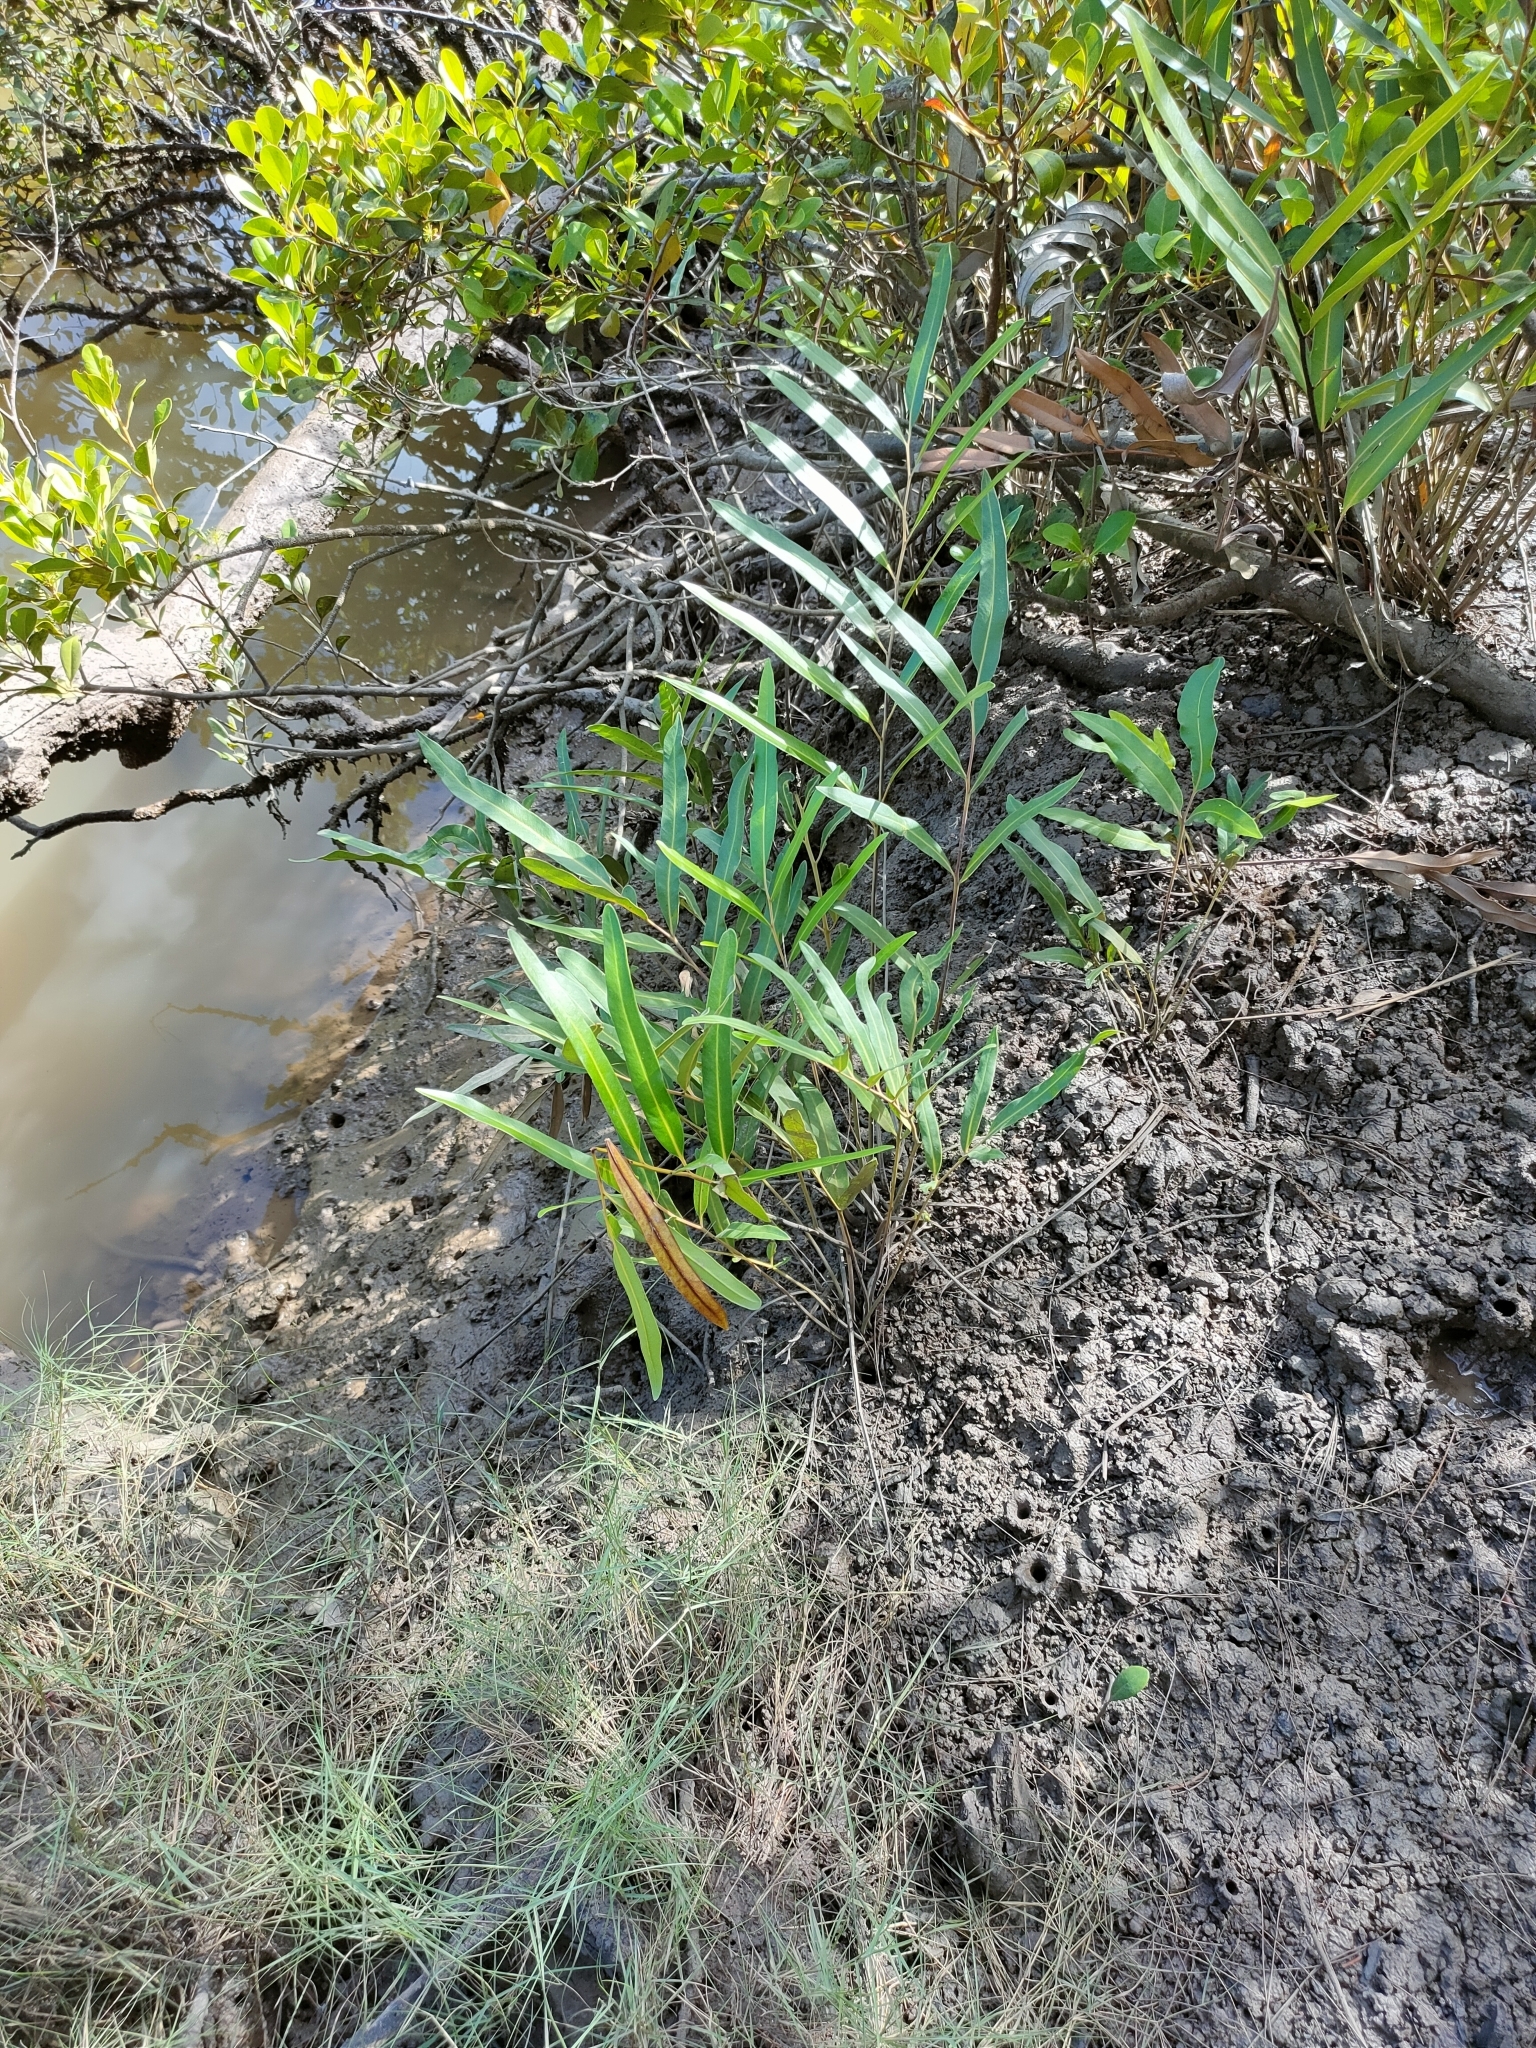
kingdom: Plantae
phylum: Tracheophyta
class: Polypodiopsida
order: Polypodiales
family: Pteridaceae
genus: Acrostichum
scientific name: Acrostichum speciosum
